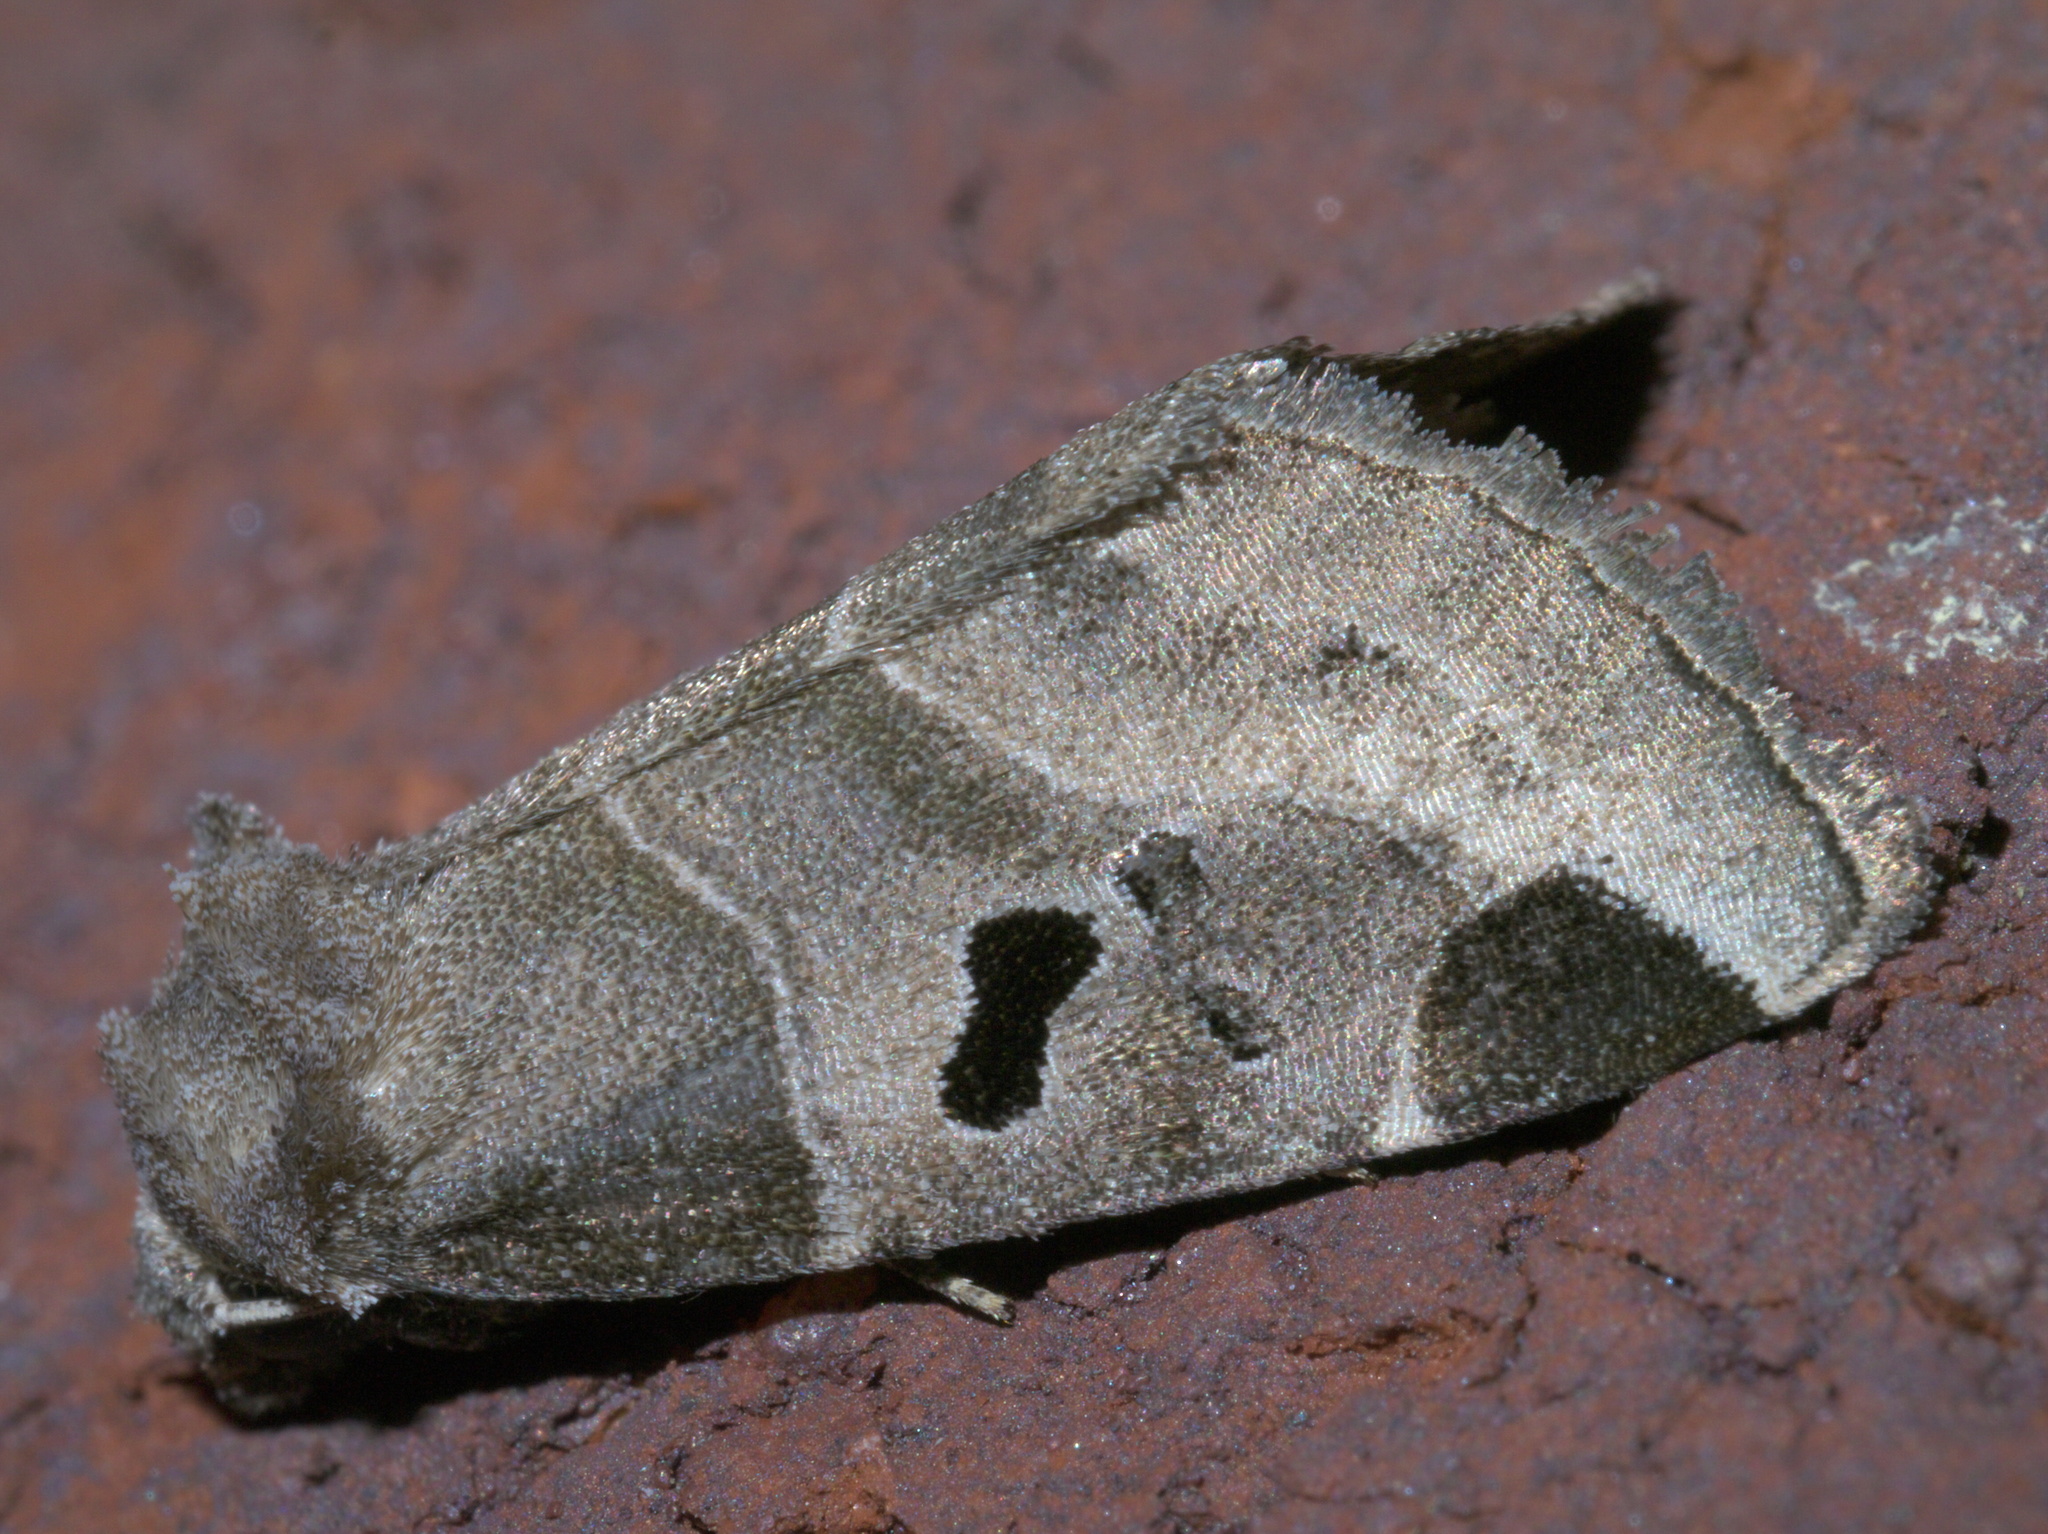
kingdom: Animalia
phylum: Arthropoda
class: Insecta
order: Lepidoptera
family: Noctuidae
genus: Plagiomimicus
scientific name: Plagiomimicus pityochromus
